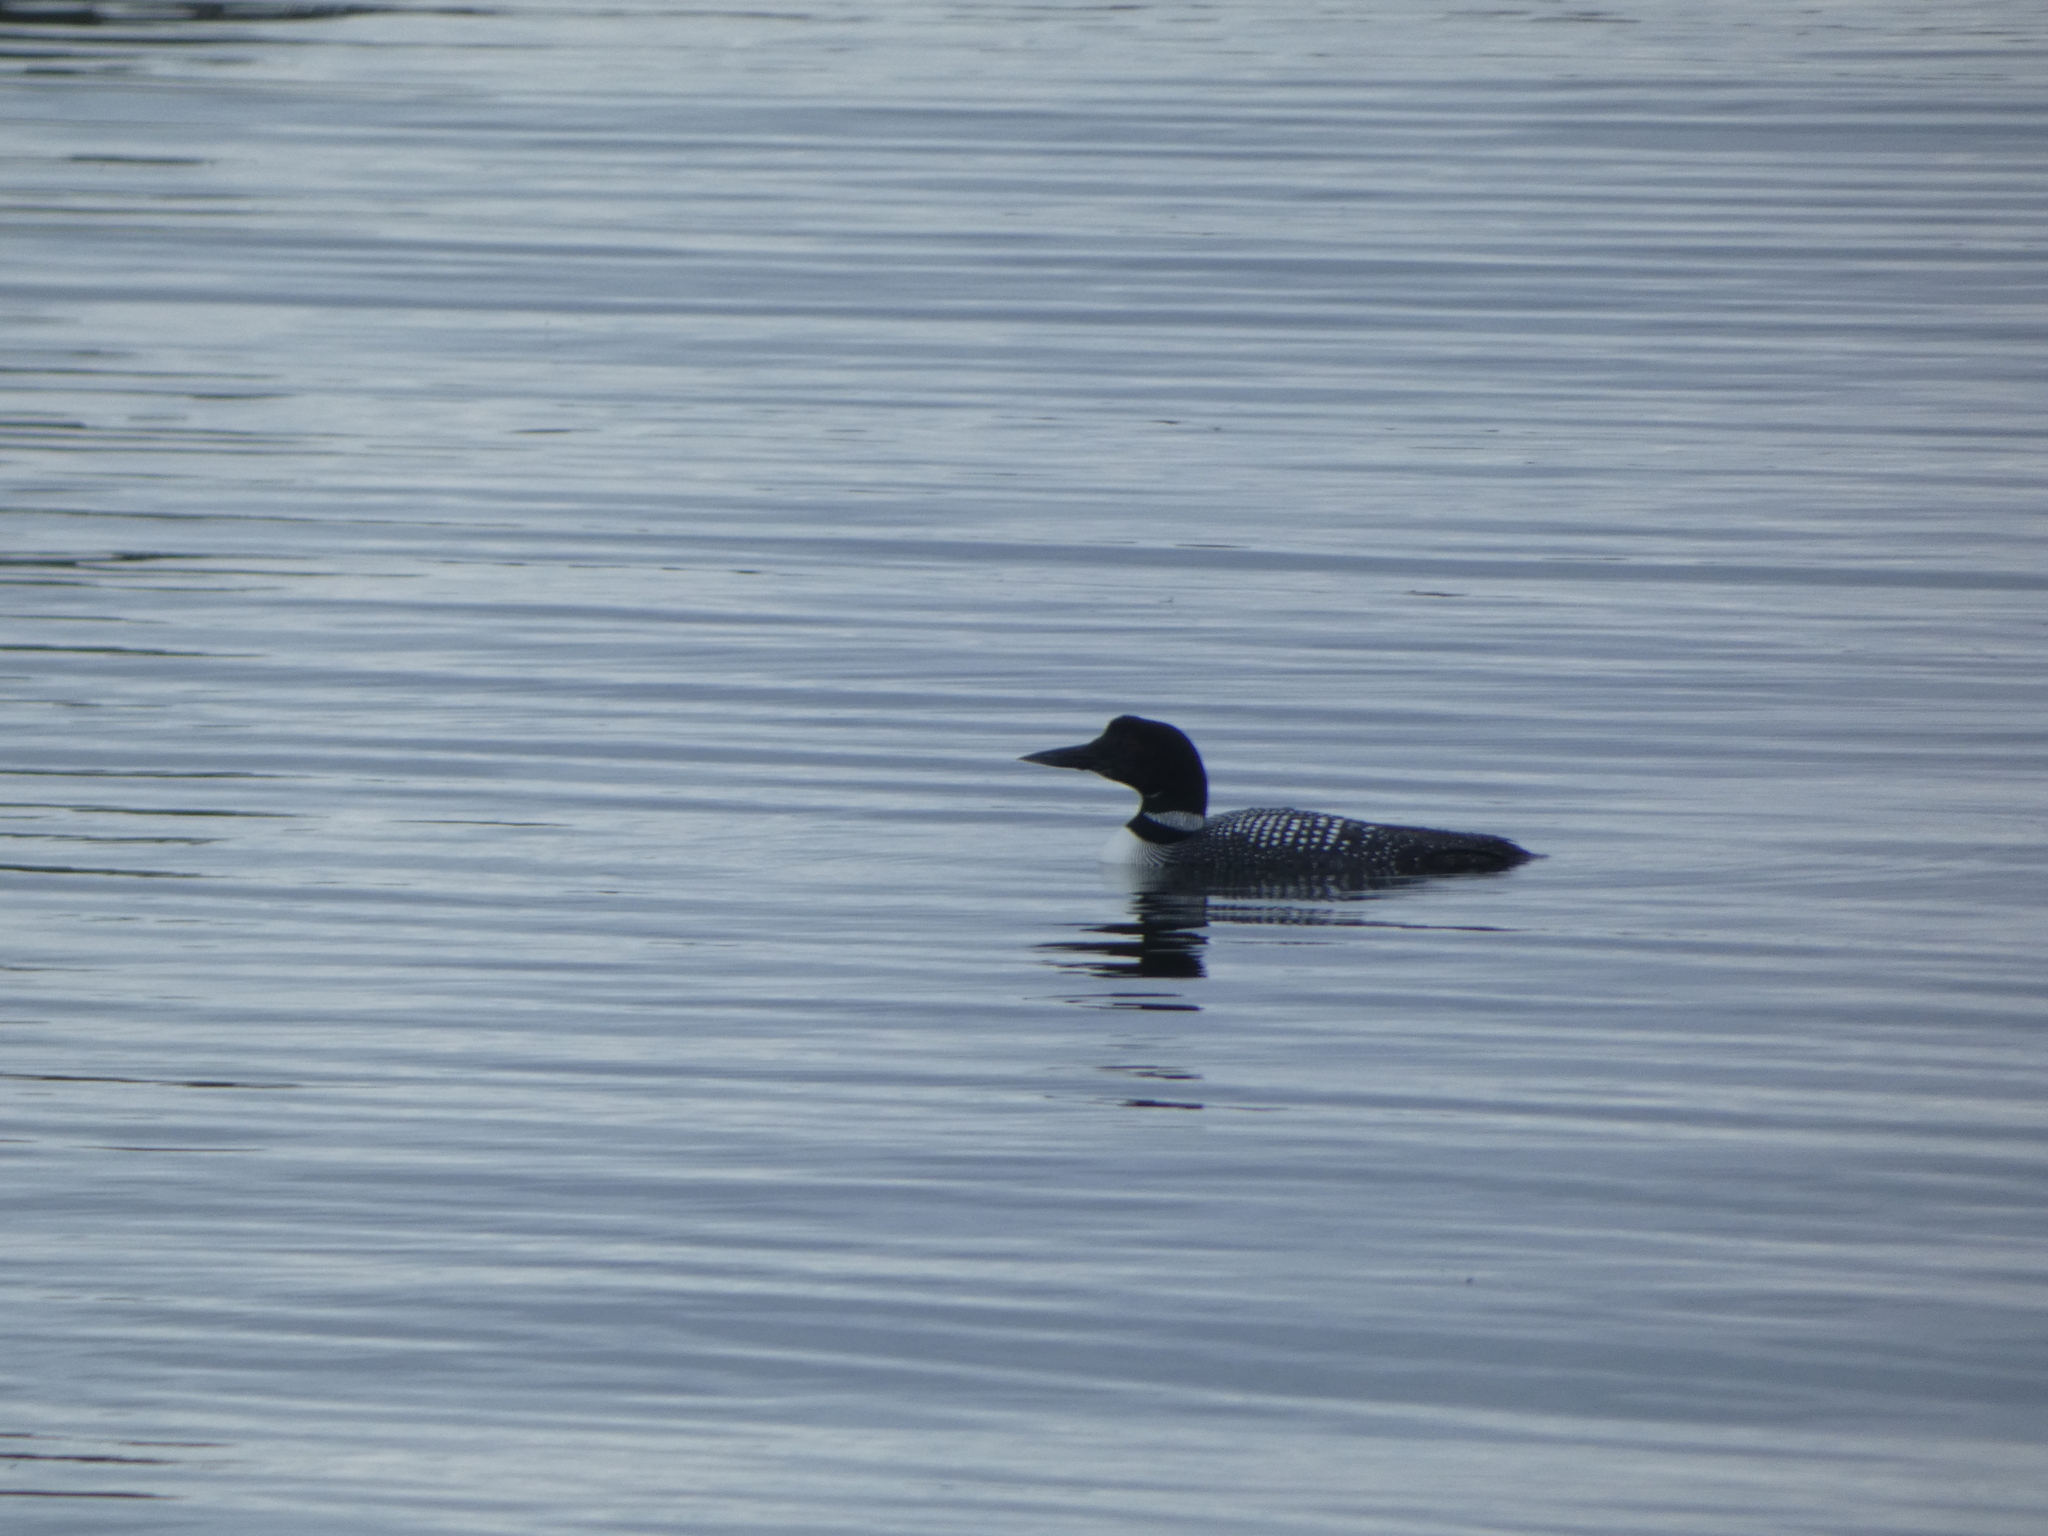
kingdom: Animalia
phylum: Chordata
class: Aves
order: Gaviiformes
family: Gaviidae
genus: Gavia
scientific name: Gavia immer
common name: Common loon
